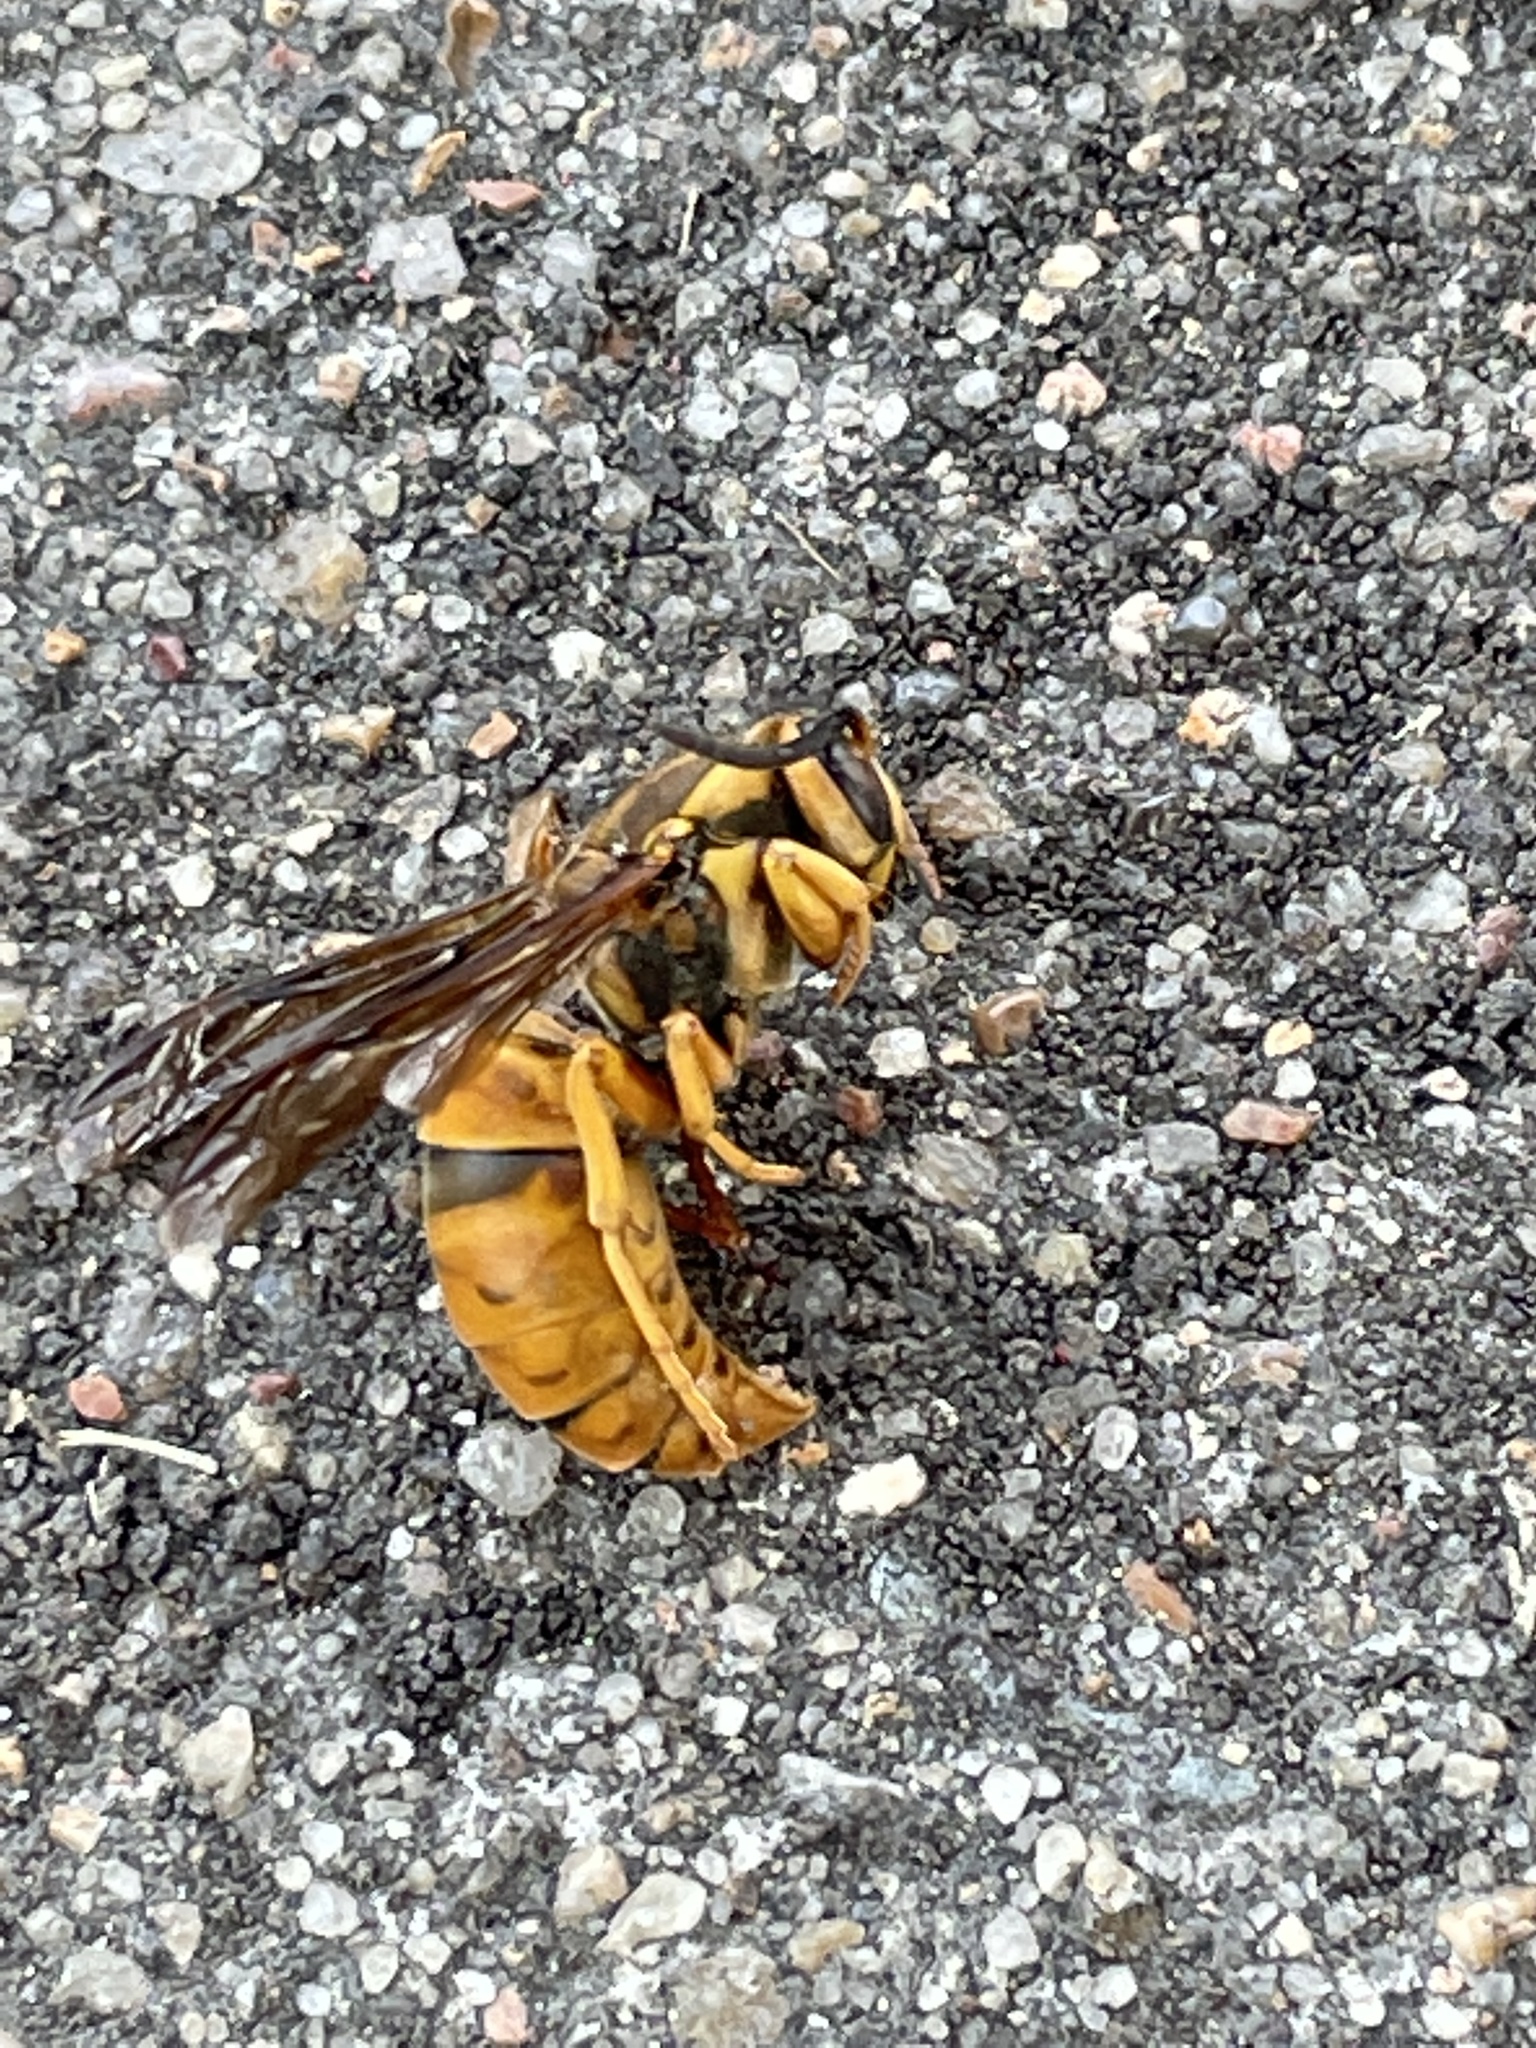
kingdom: Animalia
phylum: Arthropoda
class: Insecta
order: Hymenoptera
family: Vespidae
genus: Vespula
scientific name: Vespula squamosa
